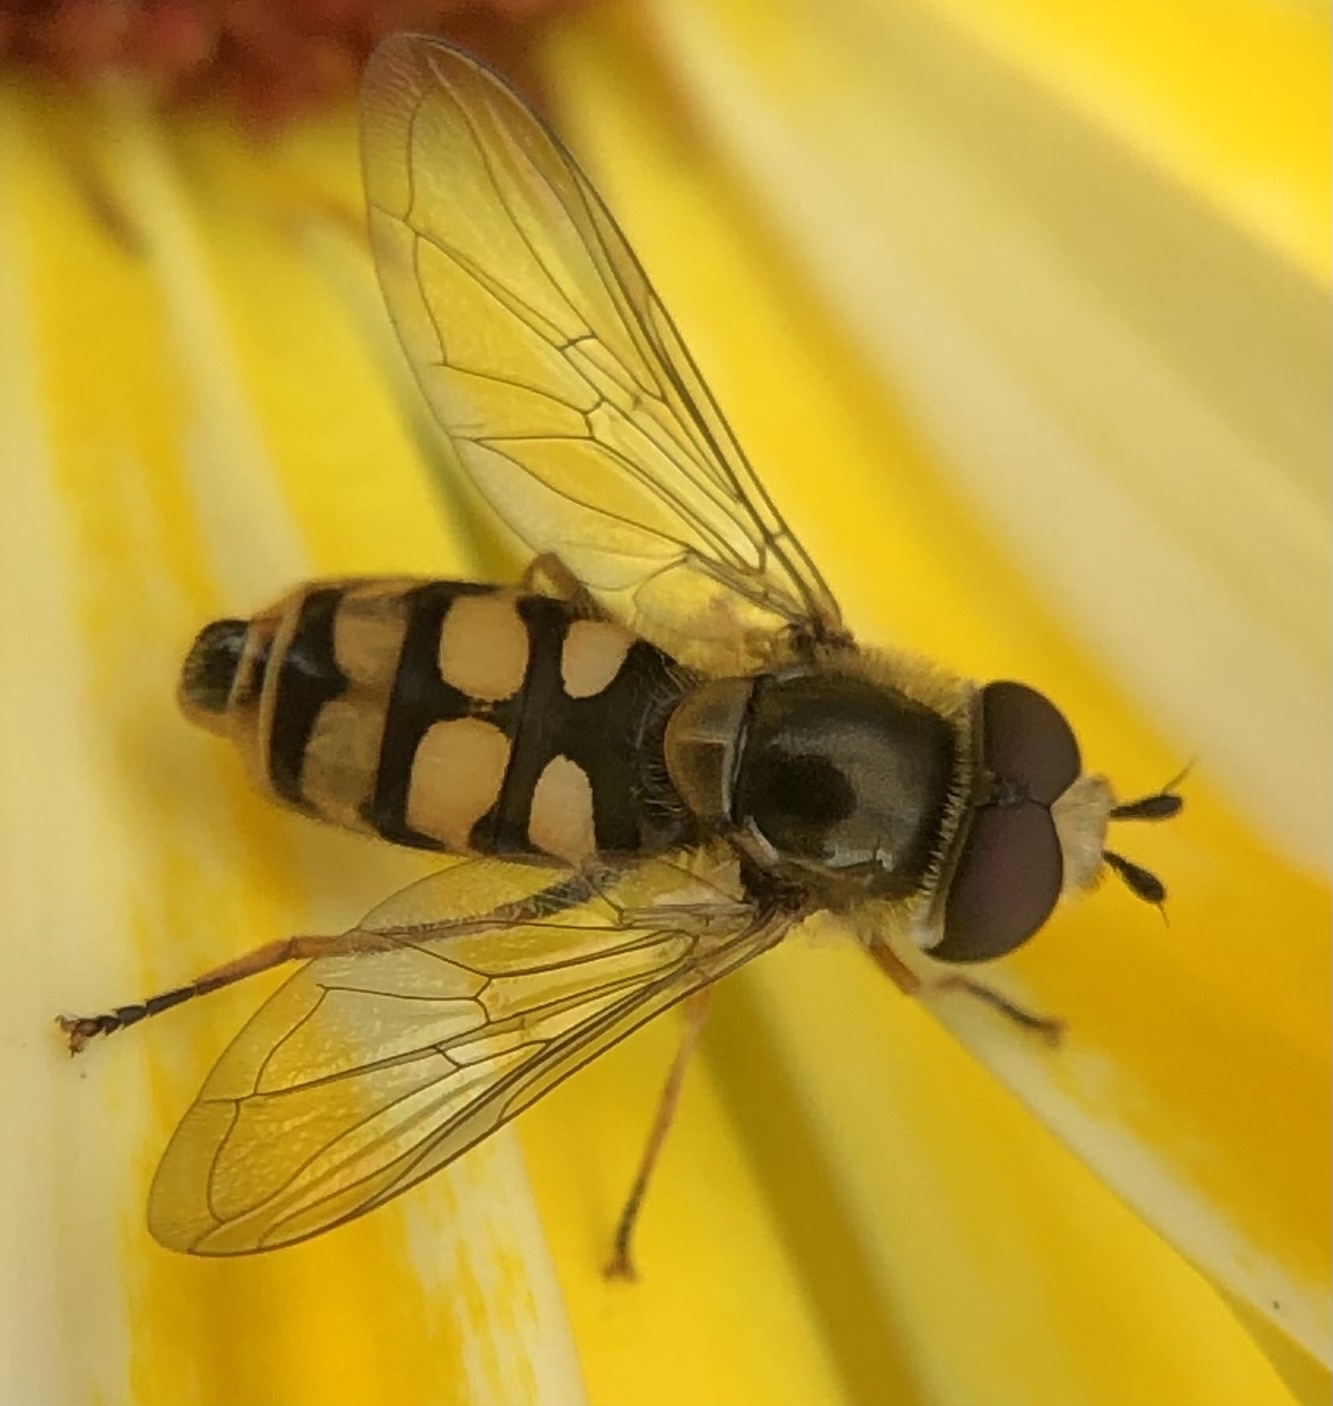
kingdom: Animalia
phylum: Arthropoda
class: Insecta
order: Diptera
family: Syrphidae
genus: Eupeodes
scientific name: Eupeodes corollae
